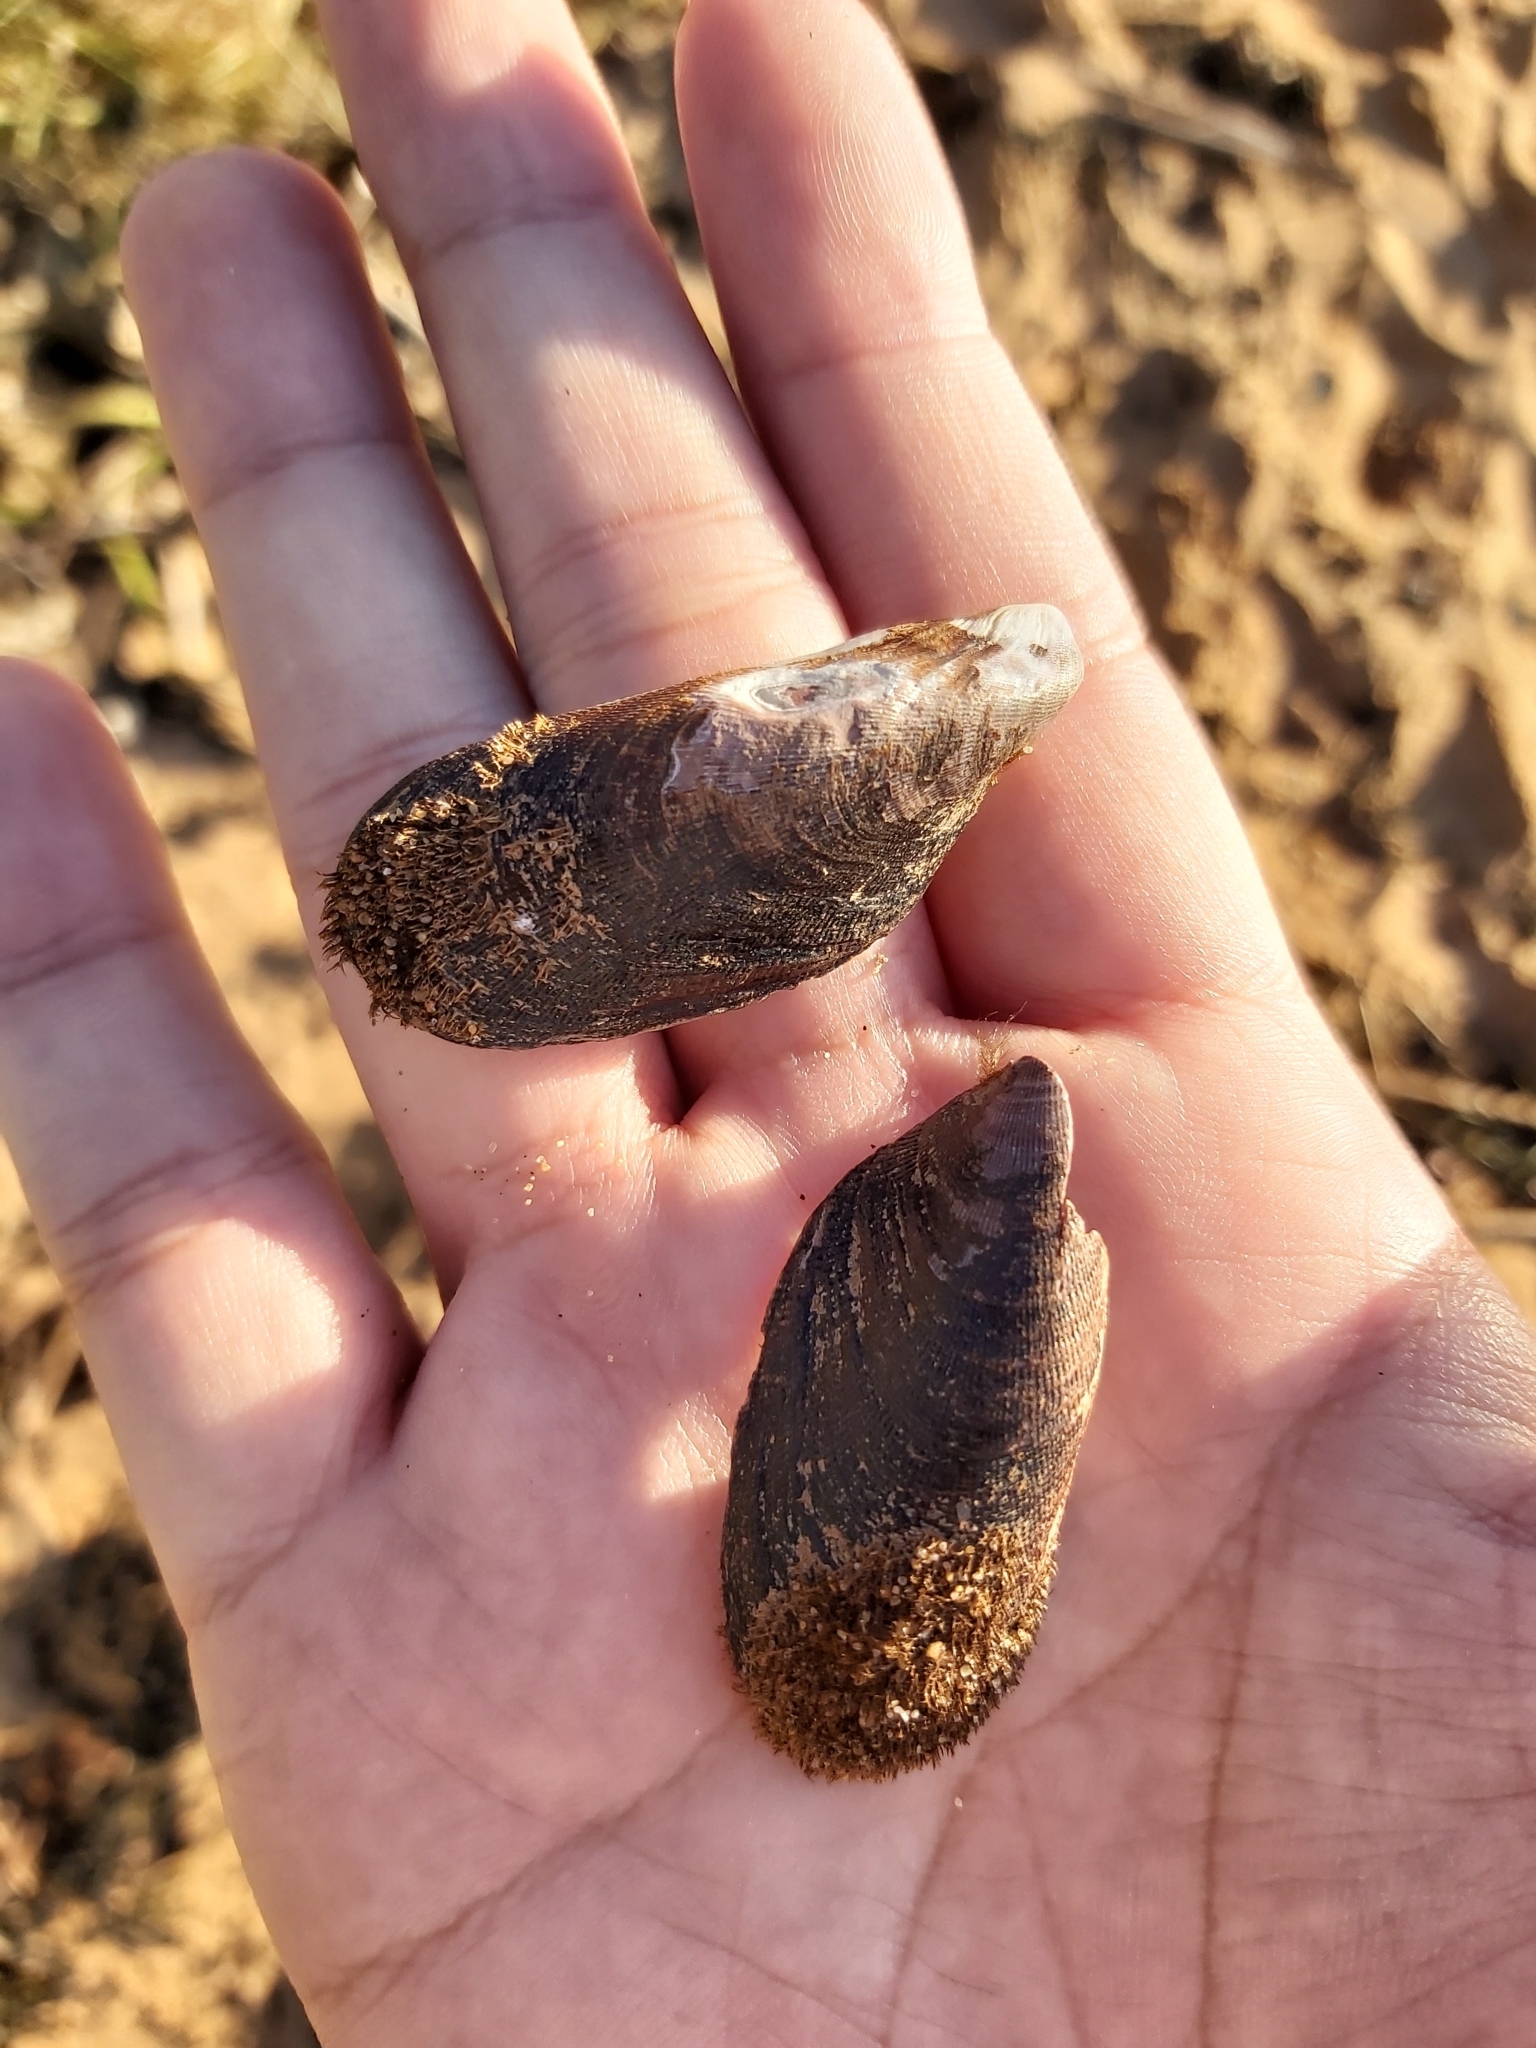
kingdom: Animalia
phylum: Mollusca
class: Bivalvia
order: Mytilida
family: Mytilidae
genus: Trichomya
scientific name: Trichomya hirsuta
